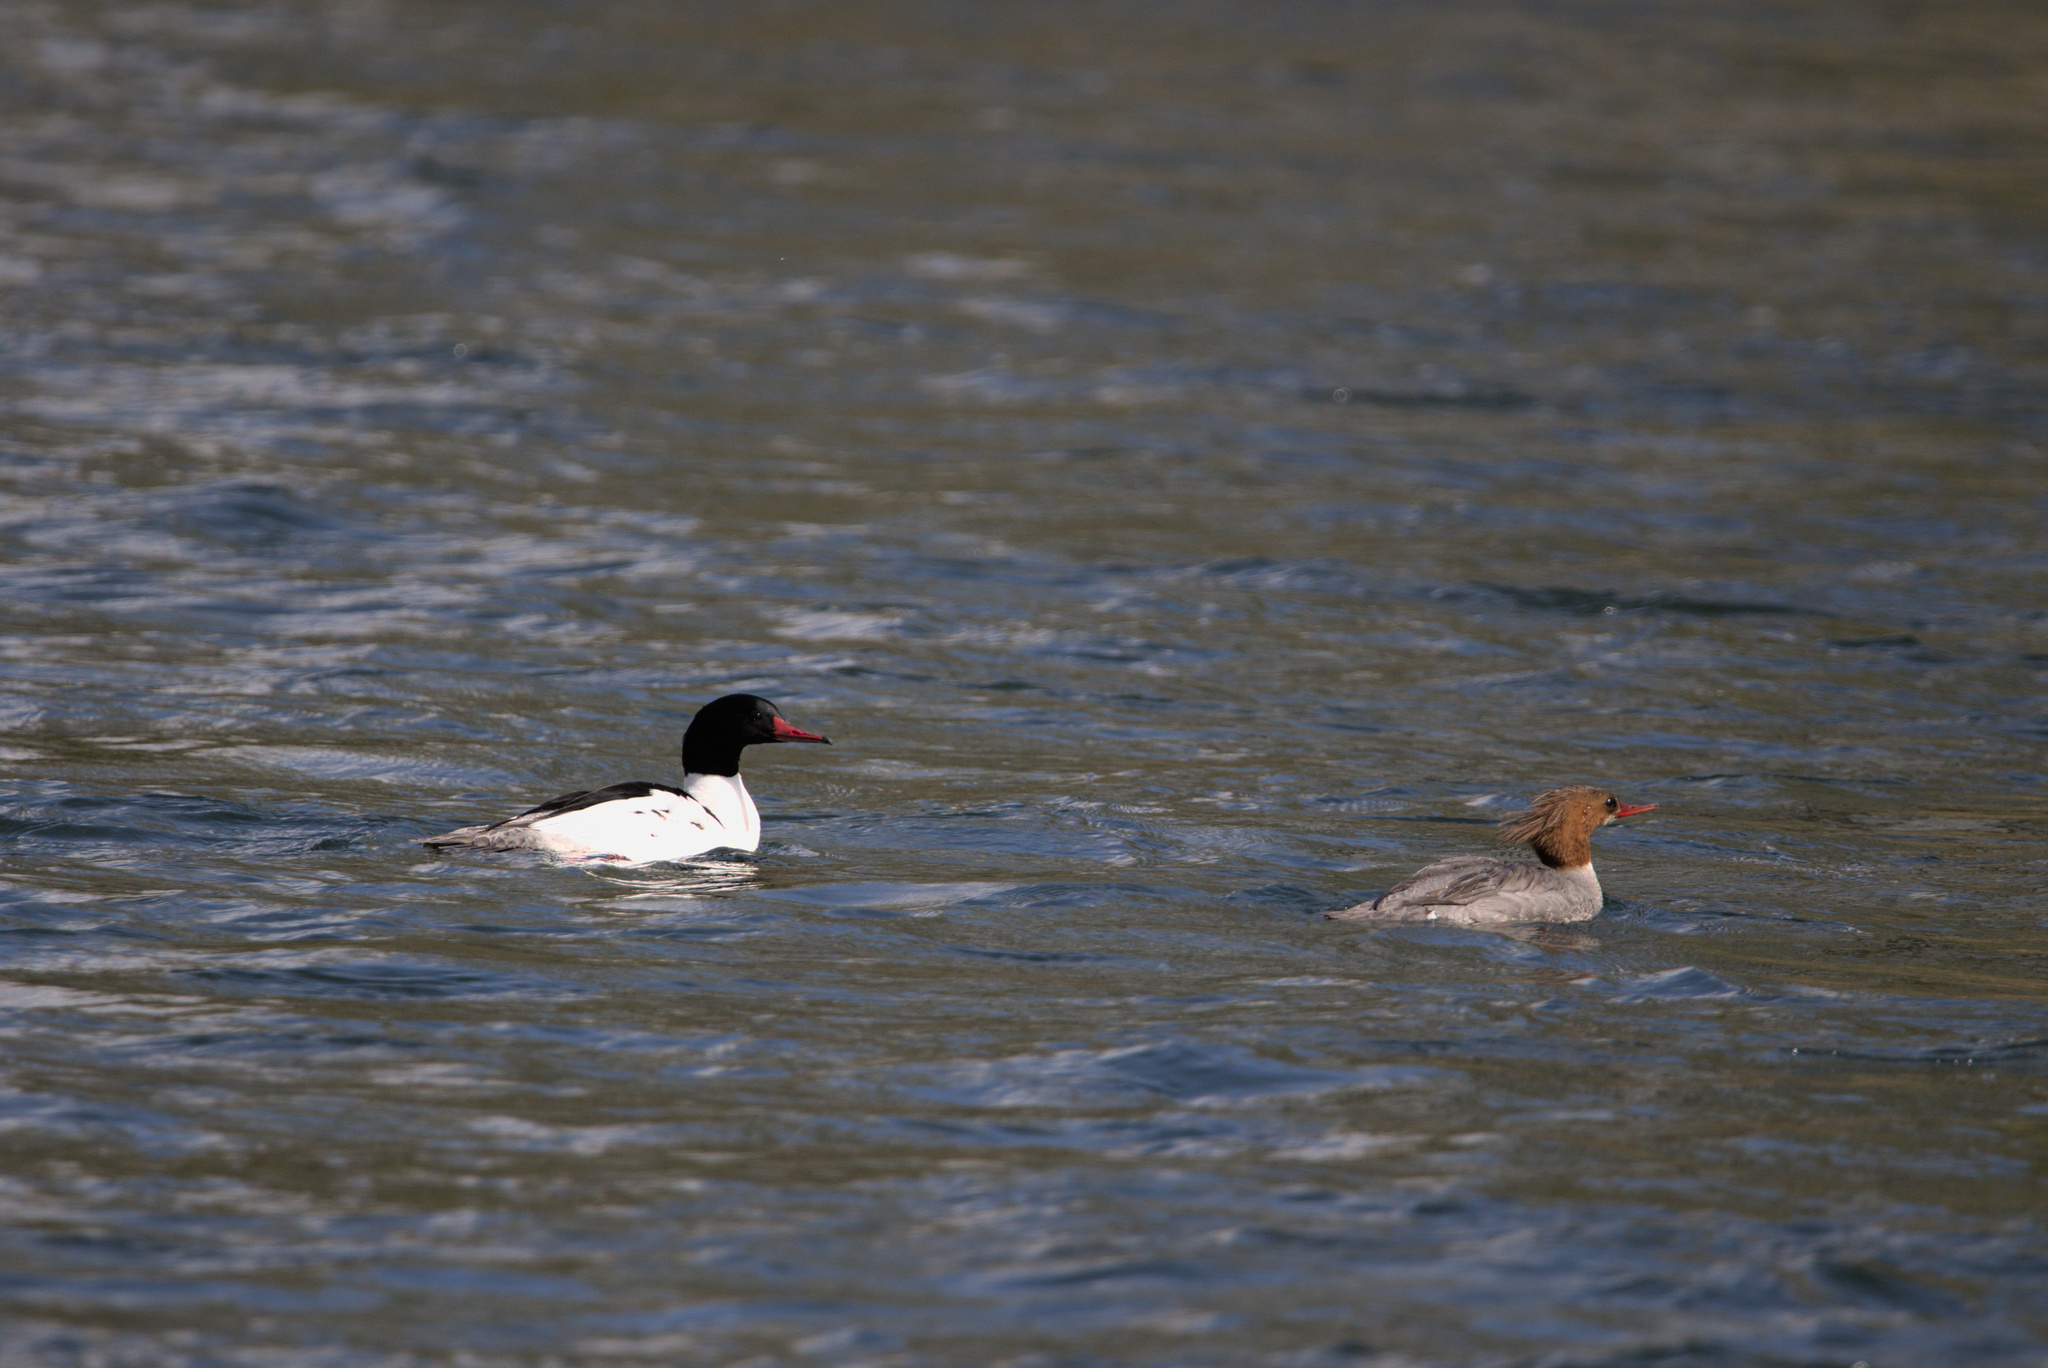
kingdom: Animalia
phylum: Chordata
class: Aves
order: Anseriformes
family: Anatidae
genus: Mergus
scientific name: Mergus merganser
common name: Common merganser
